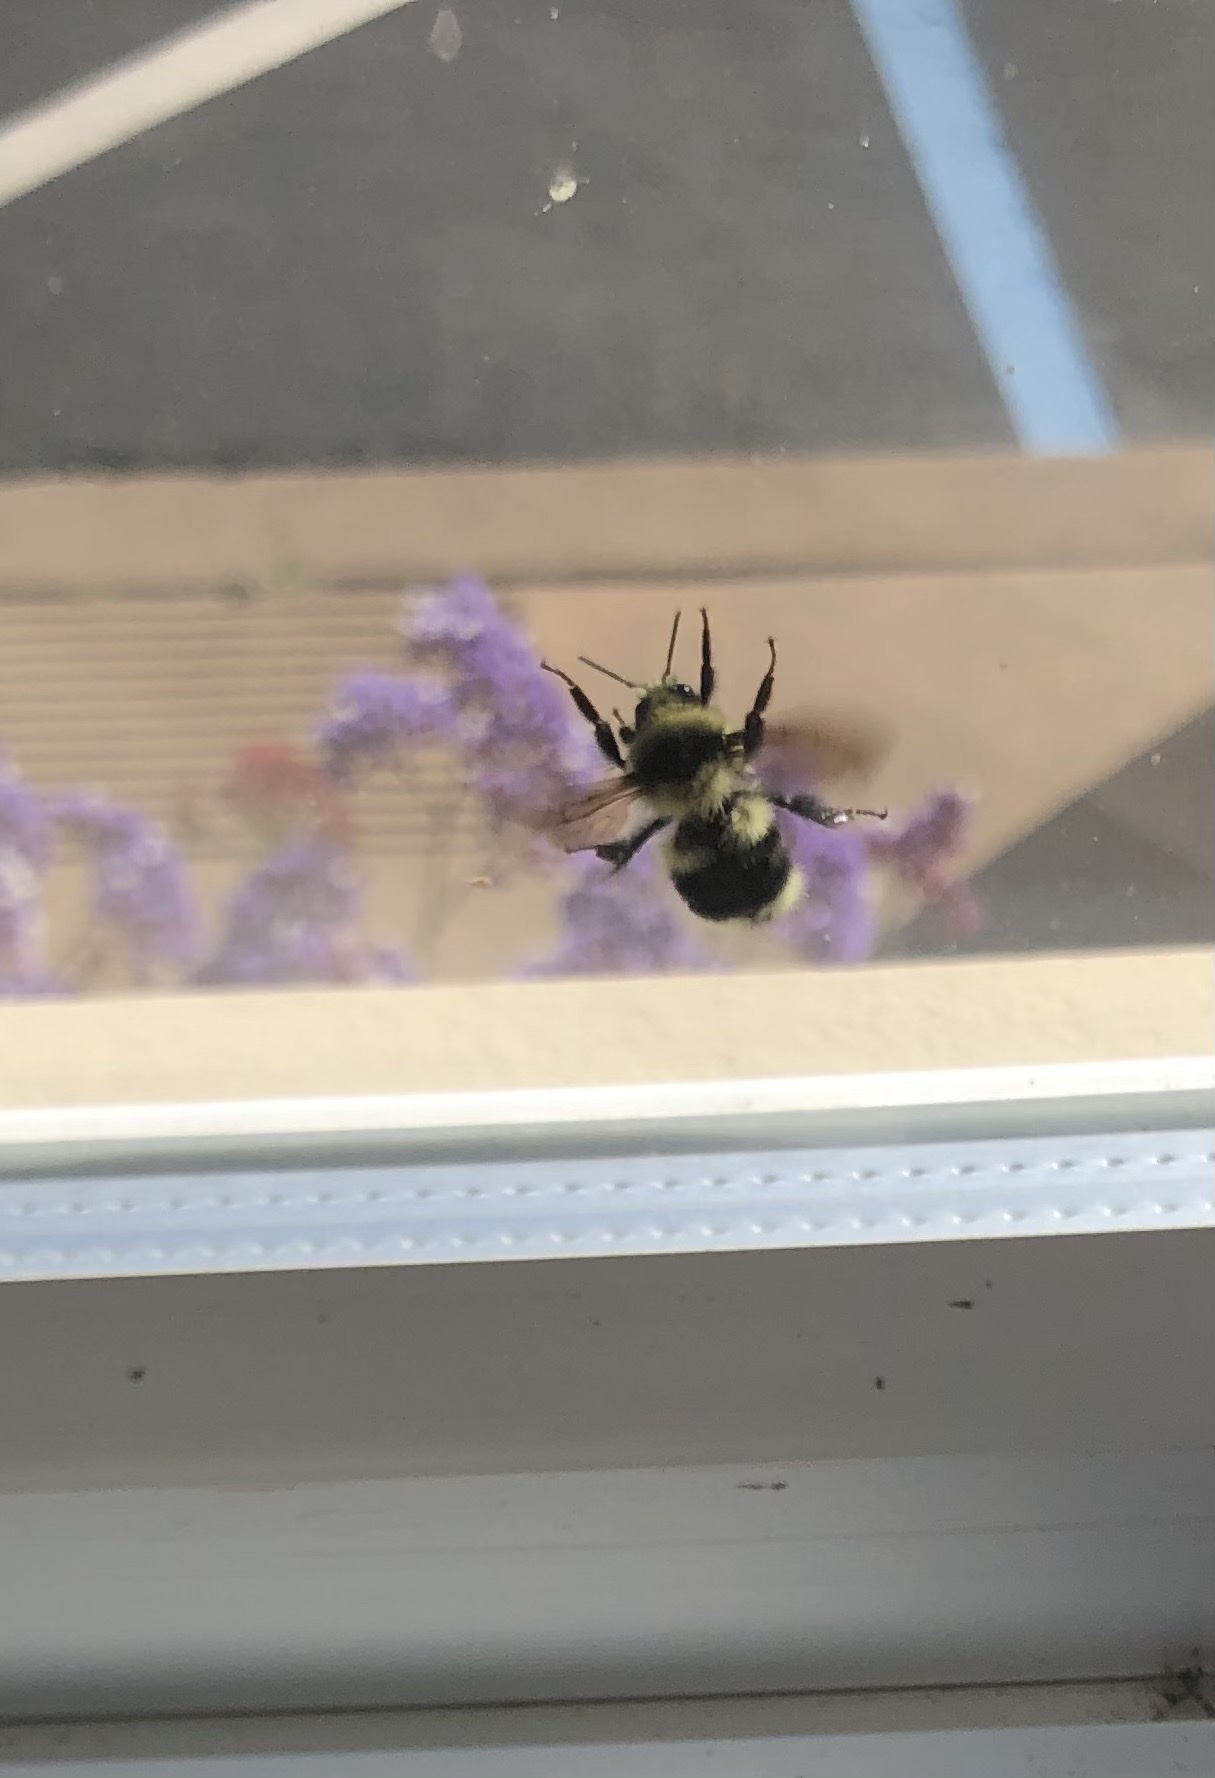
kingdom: Animalia
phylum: Arthropoda
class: Insecta
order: Hymenoptera
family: Apidae
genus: Bombus
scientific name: Bombus melanopygus
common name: Black tail bumble bee
